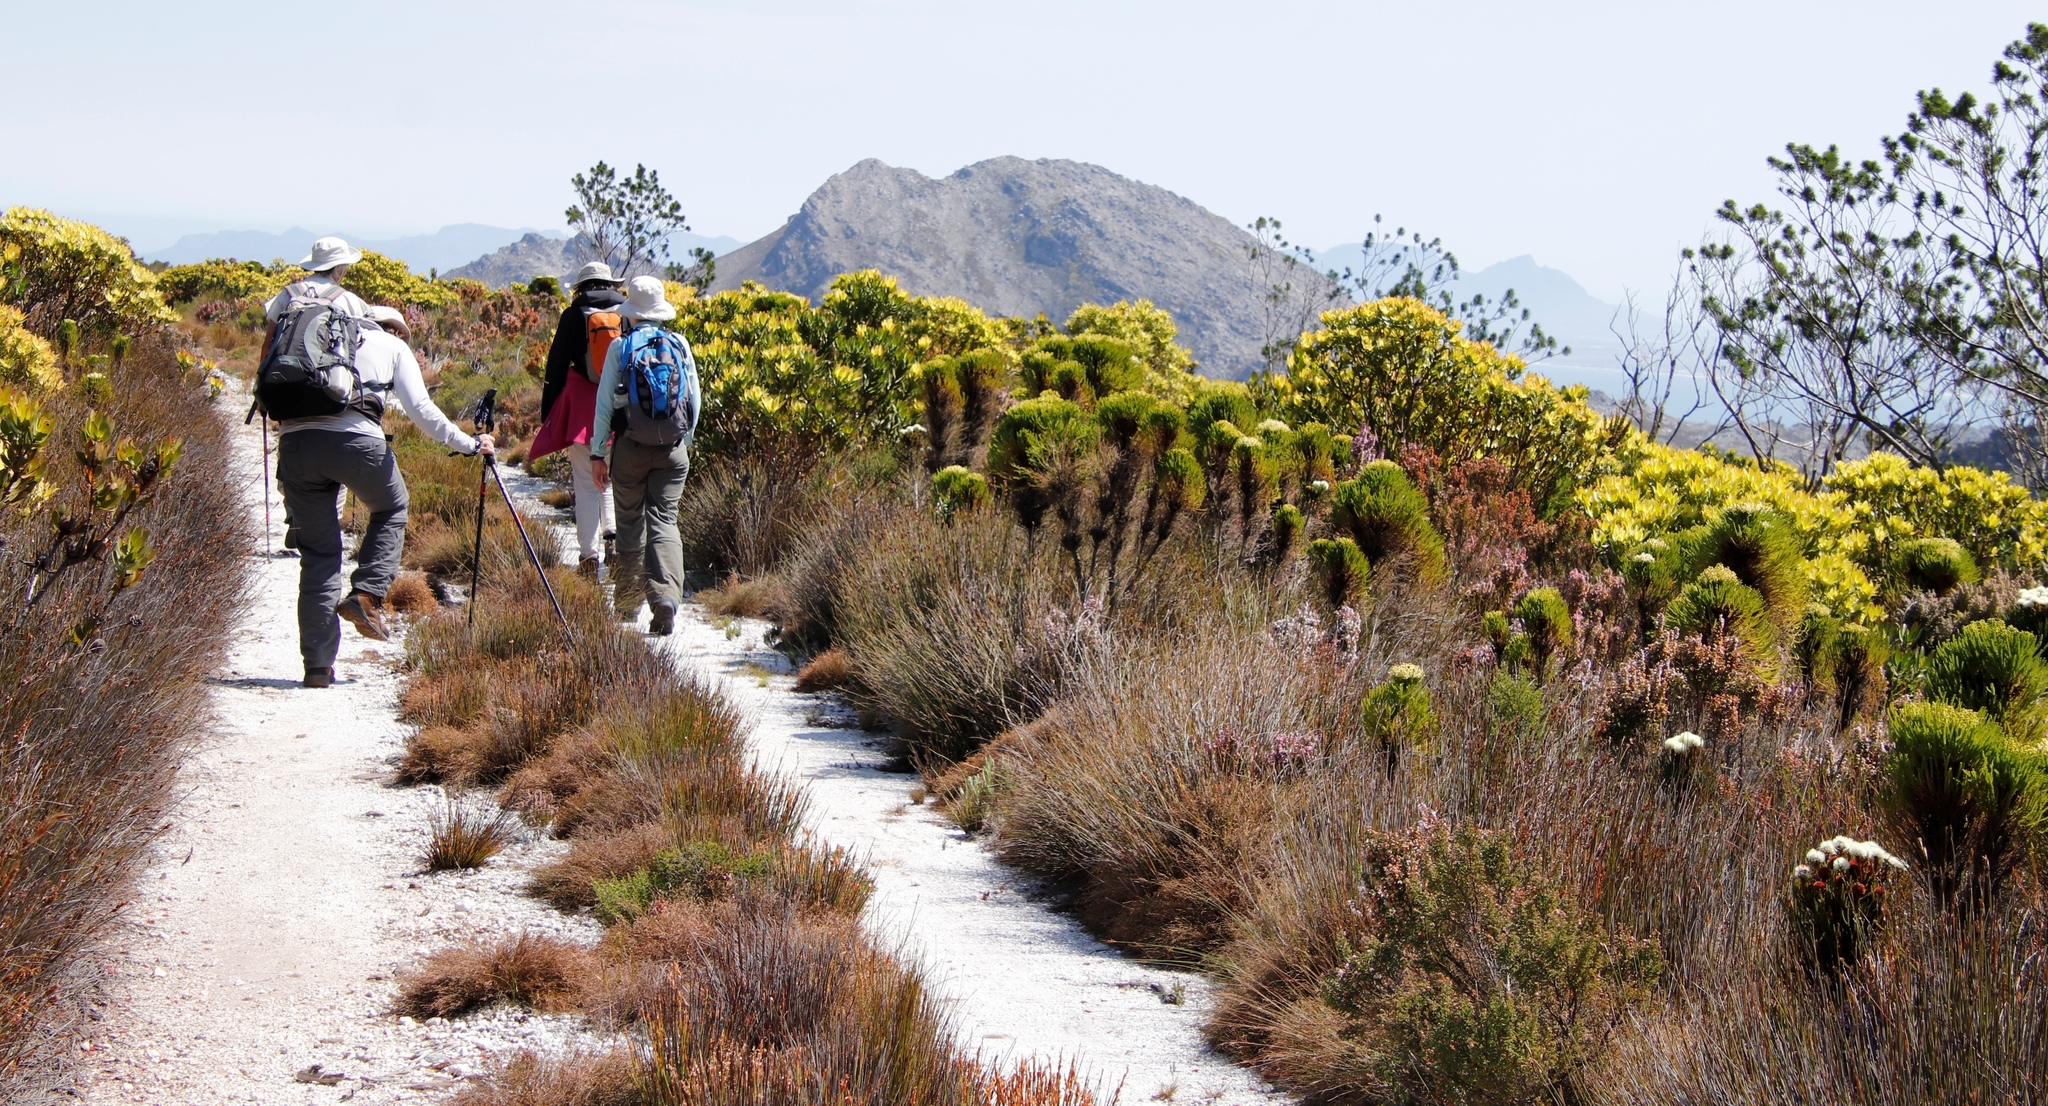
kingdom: Plantae
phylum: Tracheophyta
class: Magnoliopsida
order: Fabales
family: Fabaceae
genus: Psoralea
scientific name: Psoralea pinnata
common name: African scurfpea
